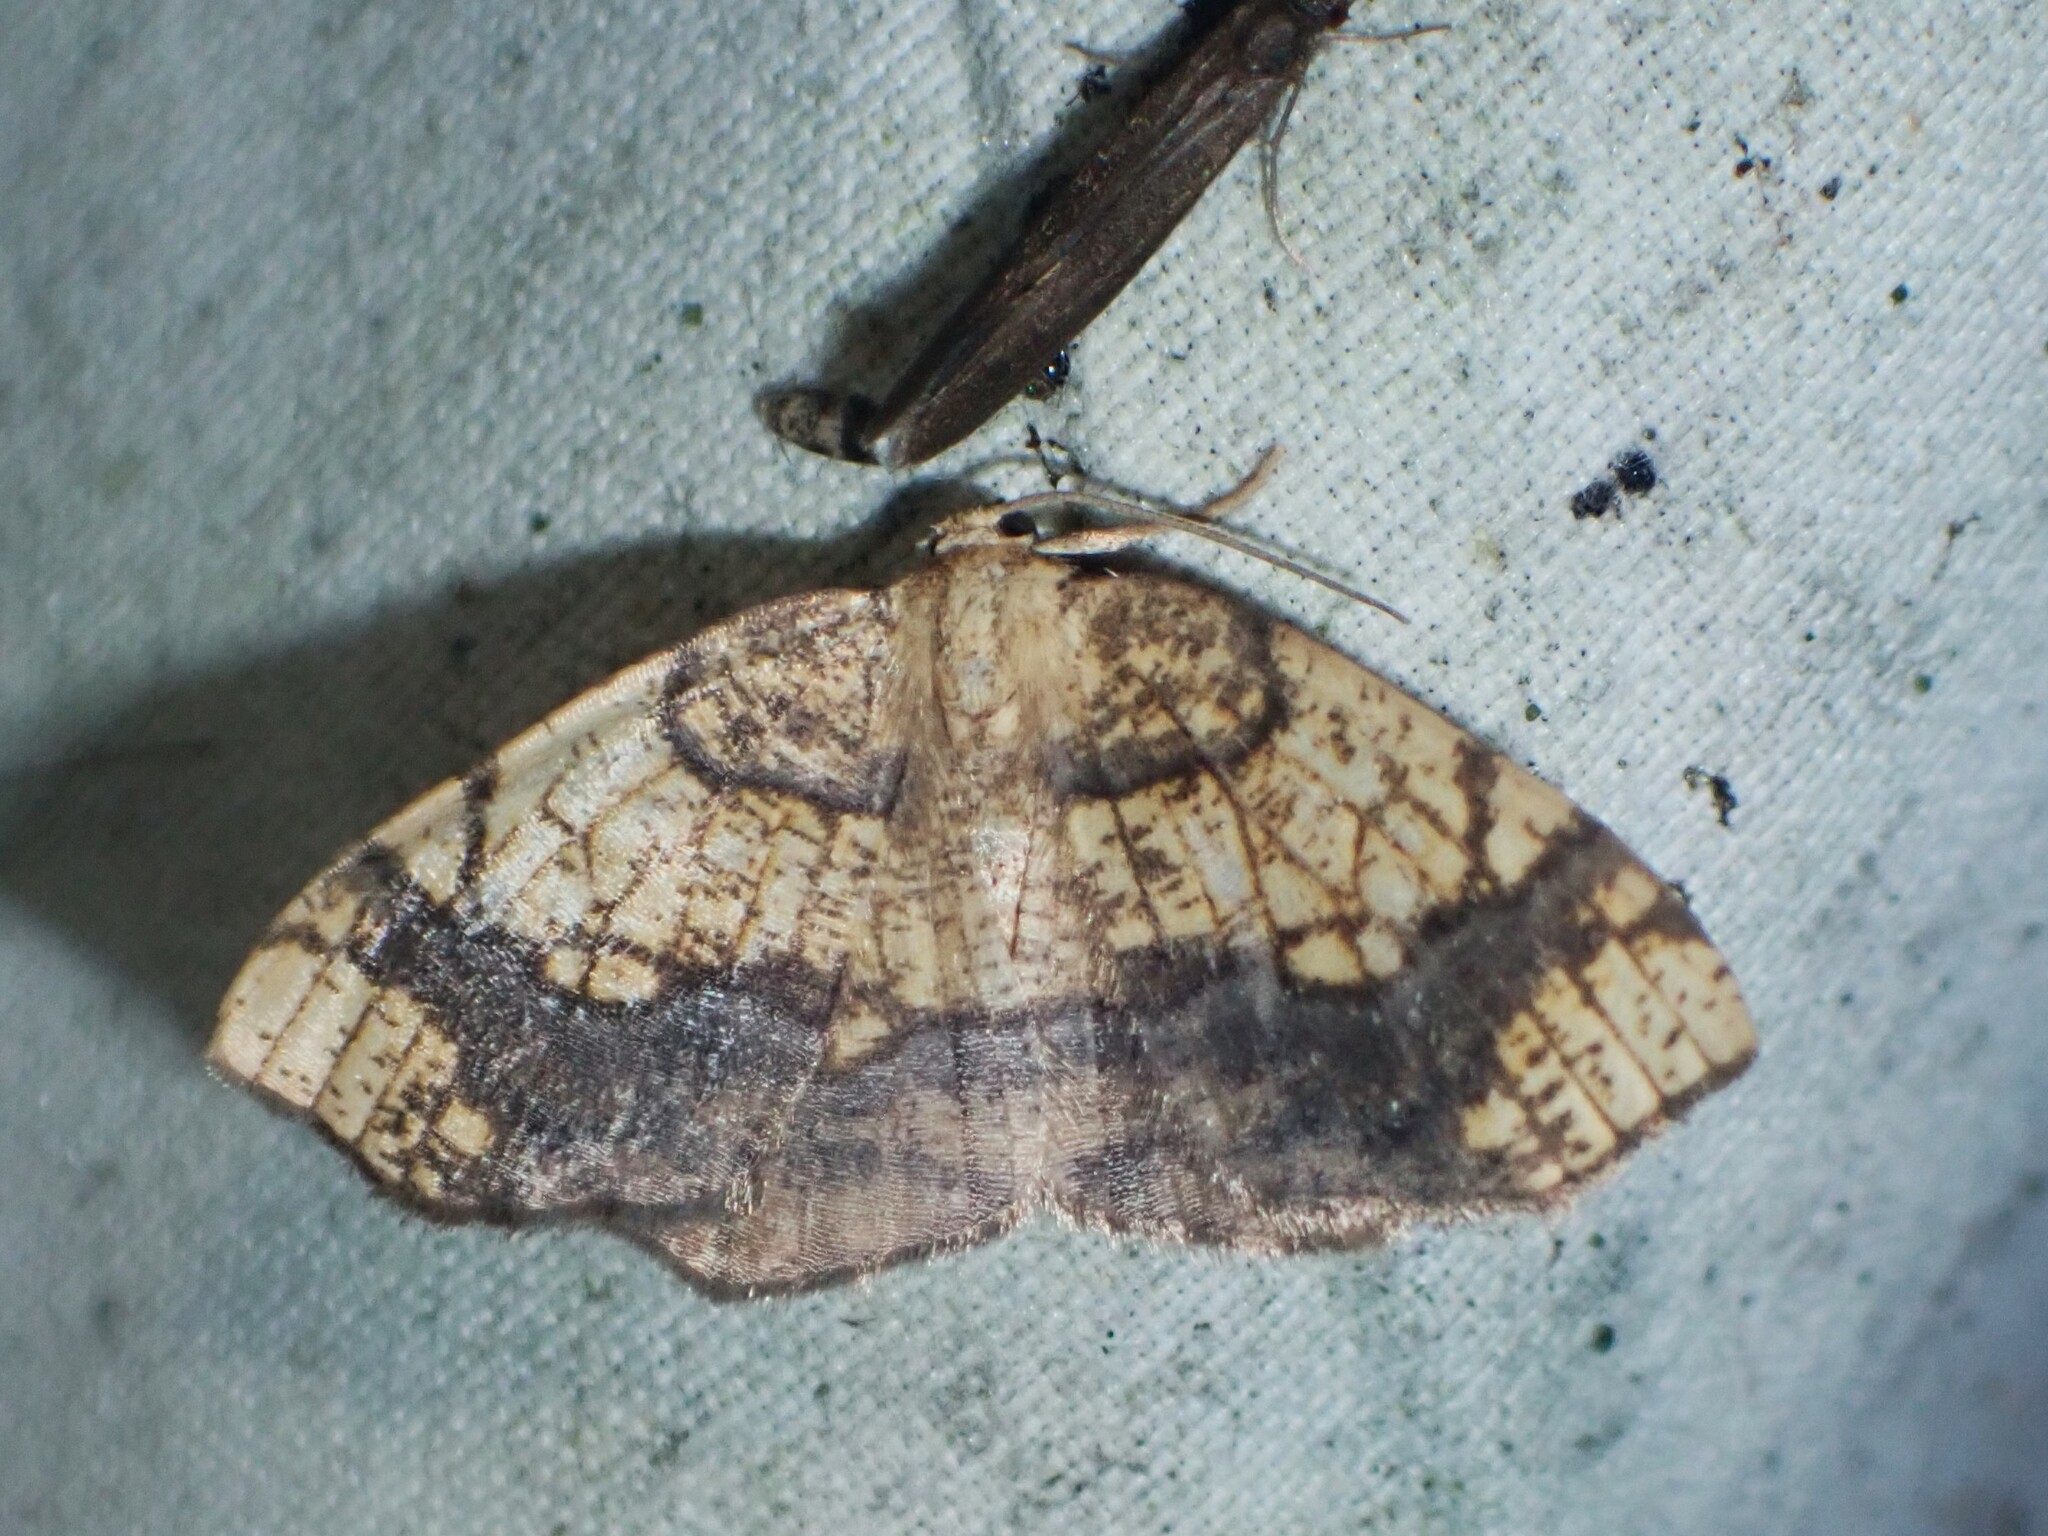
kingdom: Animalia
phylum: Arthropoda
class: Insecta
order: Lepidoptera
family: Geometridae
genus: Nematocampa
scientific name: Nematocampa resistaria
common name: Horned spanworm moth
